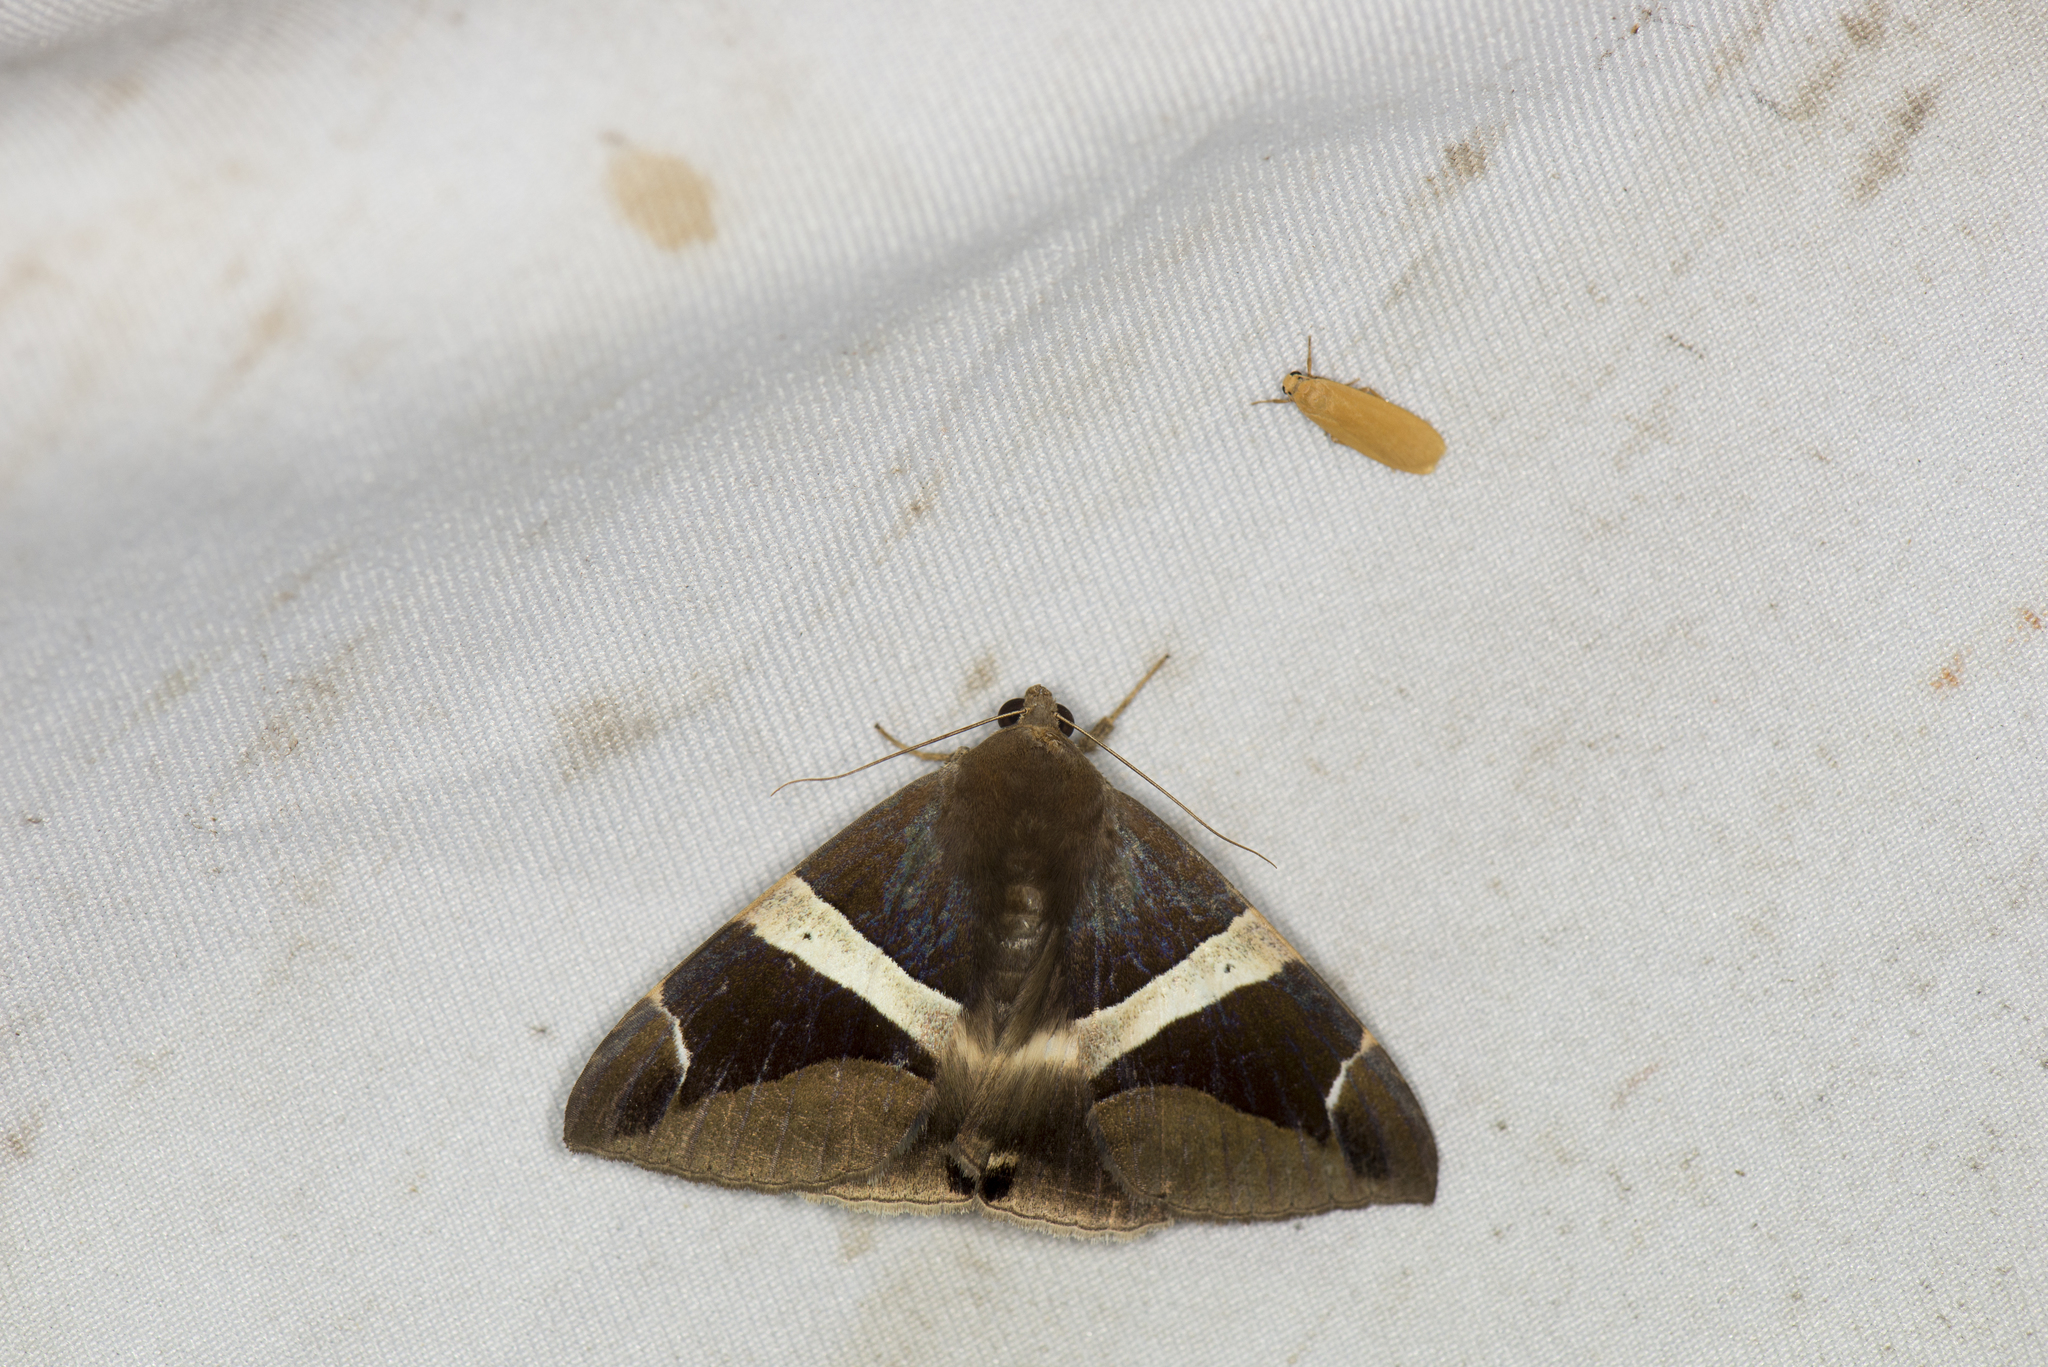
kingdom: Animalia
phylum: Arthropoda
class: Insecta
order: Lepidoptera
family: Erebidae
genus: Dysgonia
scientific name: Dysgonia praetermissa
